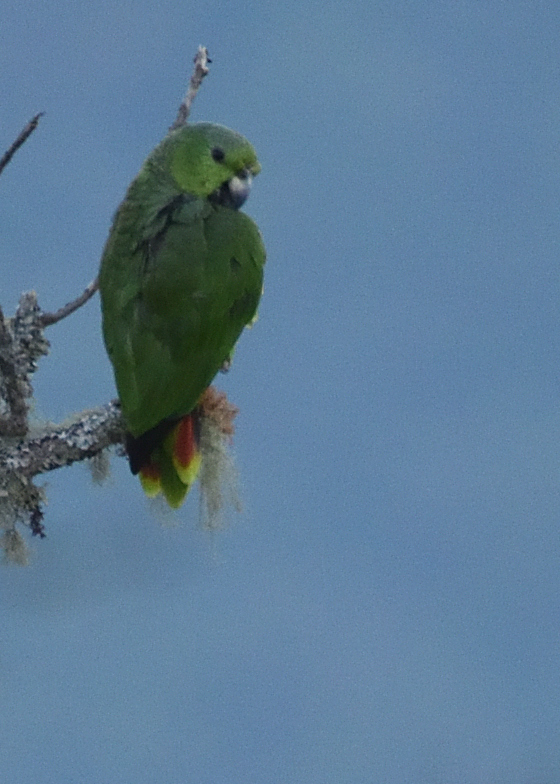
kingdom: Animalia
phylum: Chordata
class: Aves
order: Psittaciformes
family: Psittacidae
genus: Amazona
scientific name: Amazona mercenaria
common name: Scaly-naped amazon
